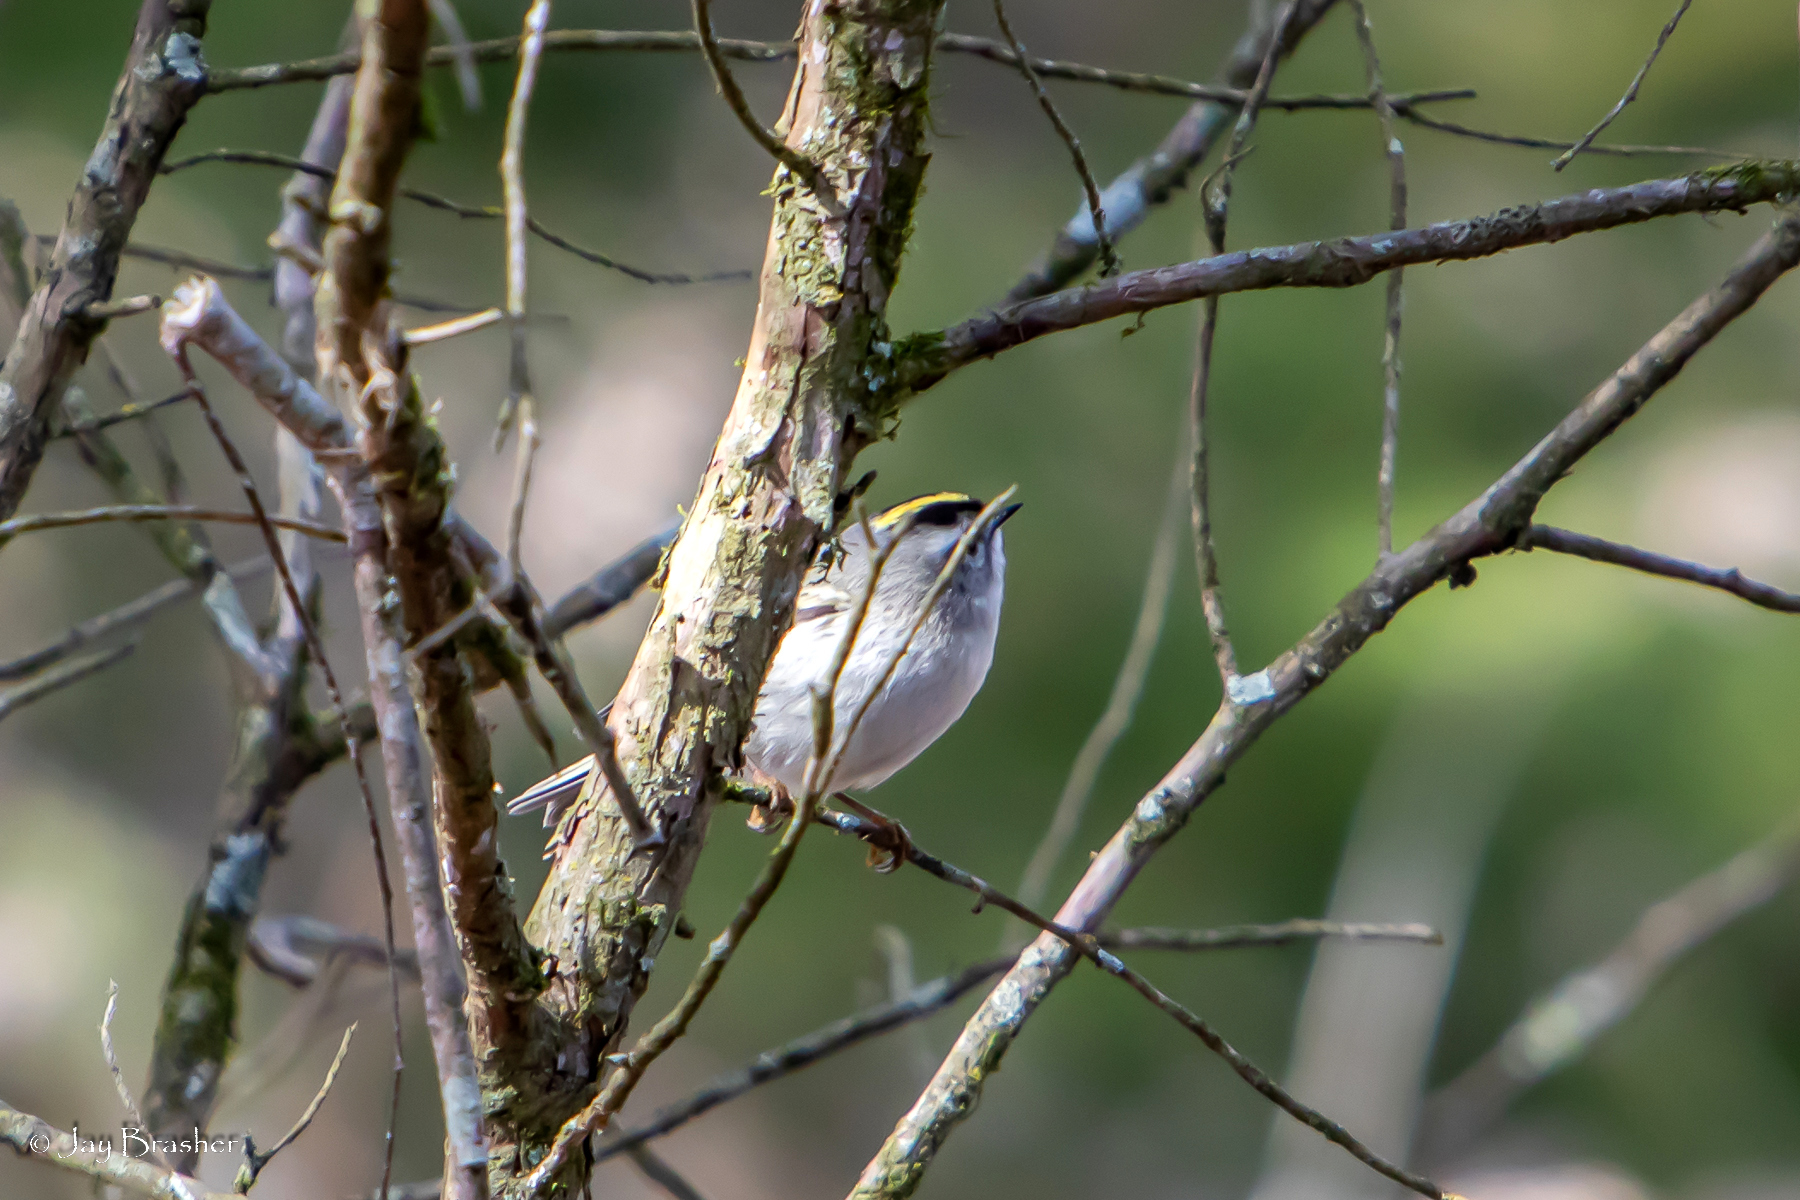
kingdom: Animalia
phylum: Chordata
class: Aves
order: Passeriformes
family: Regulidae
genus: Regulus
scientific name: Regulus satrapa
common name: Golden-crowned kinglet
